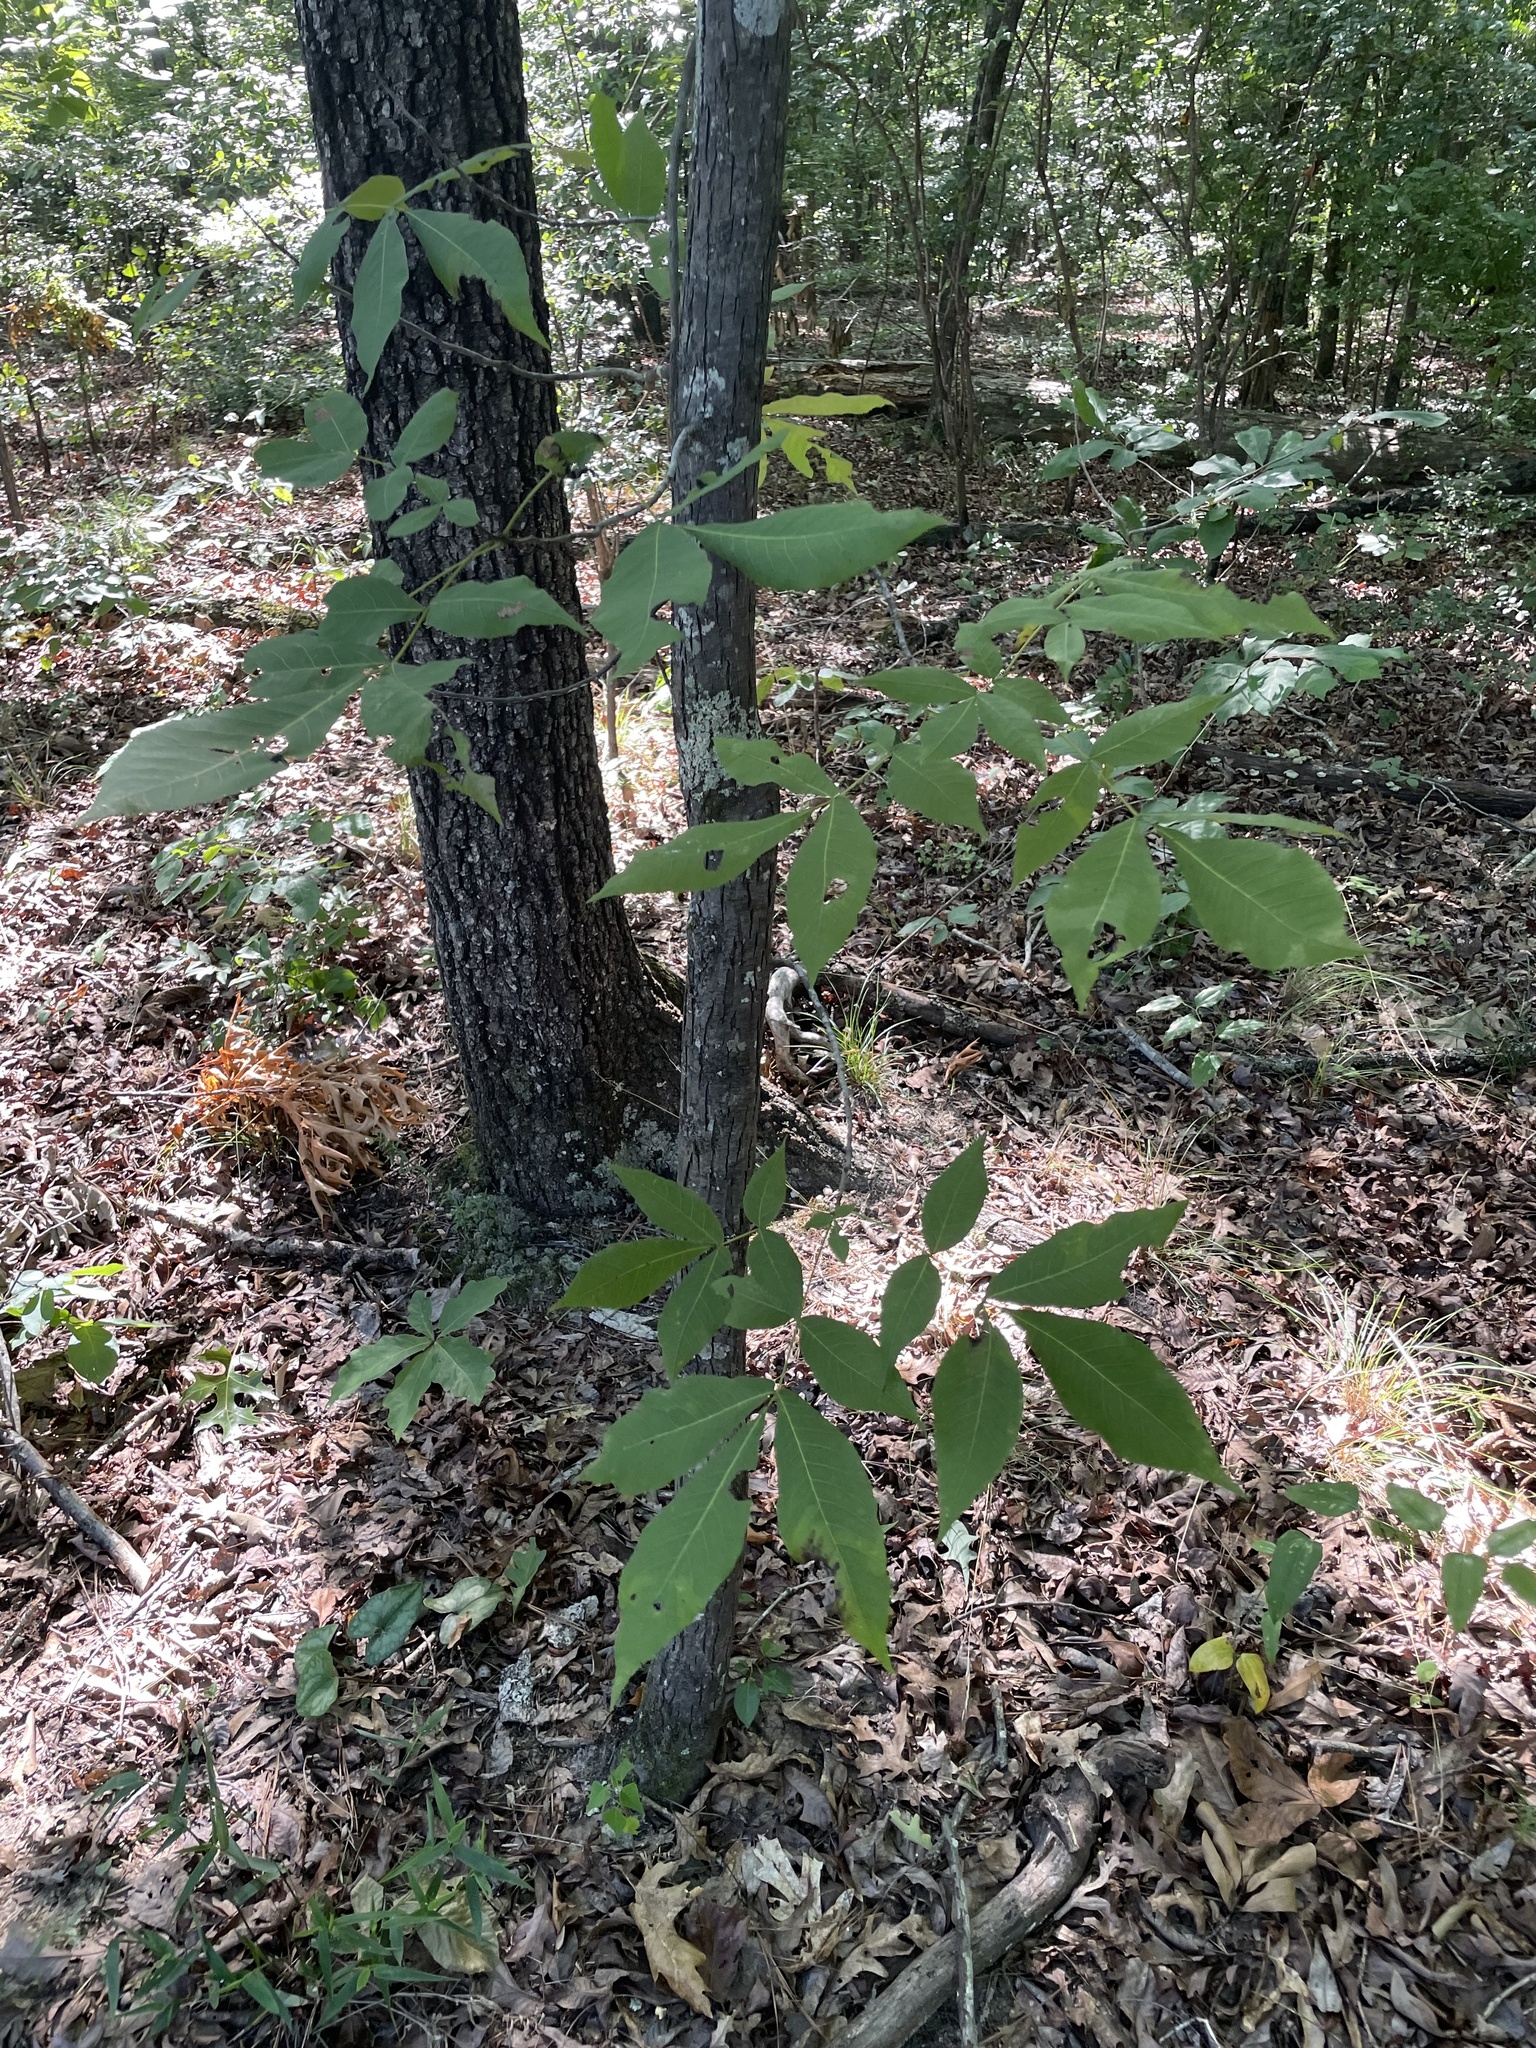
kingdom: Plantae
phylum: Tracheophyta
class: Magnoliopsida
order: Fagales
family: Juglandaceae
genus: Carya
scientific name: Carya carolinae-septentrionalis
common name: Carolina hickory
